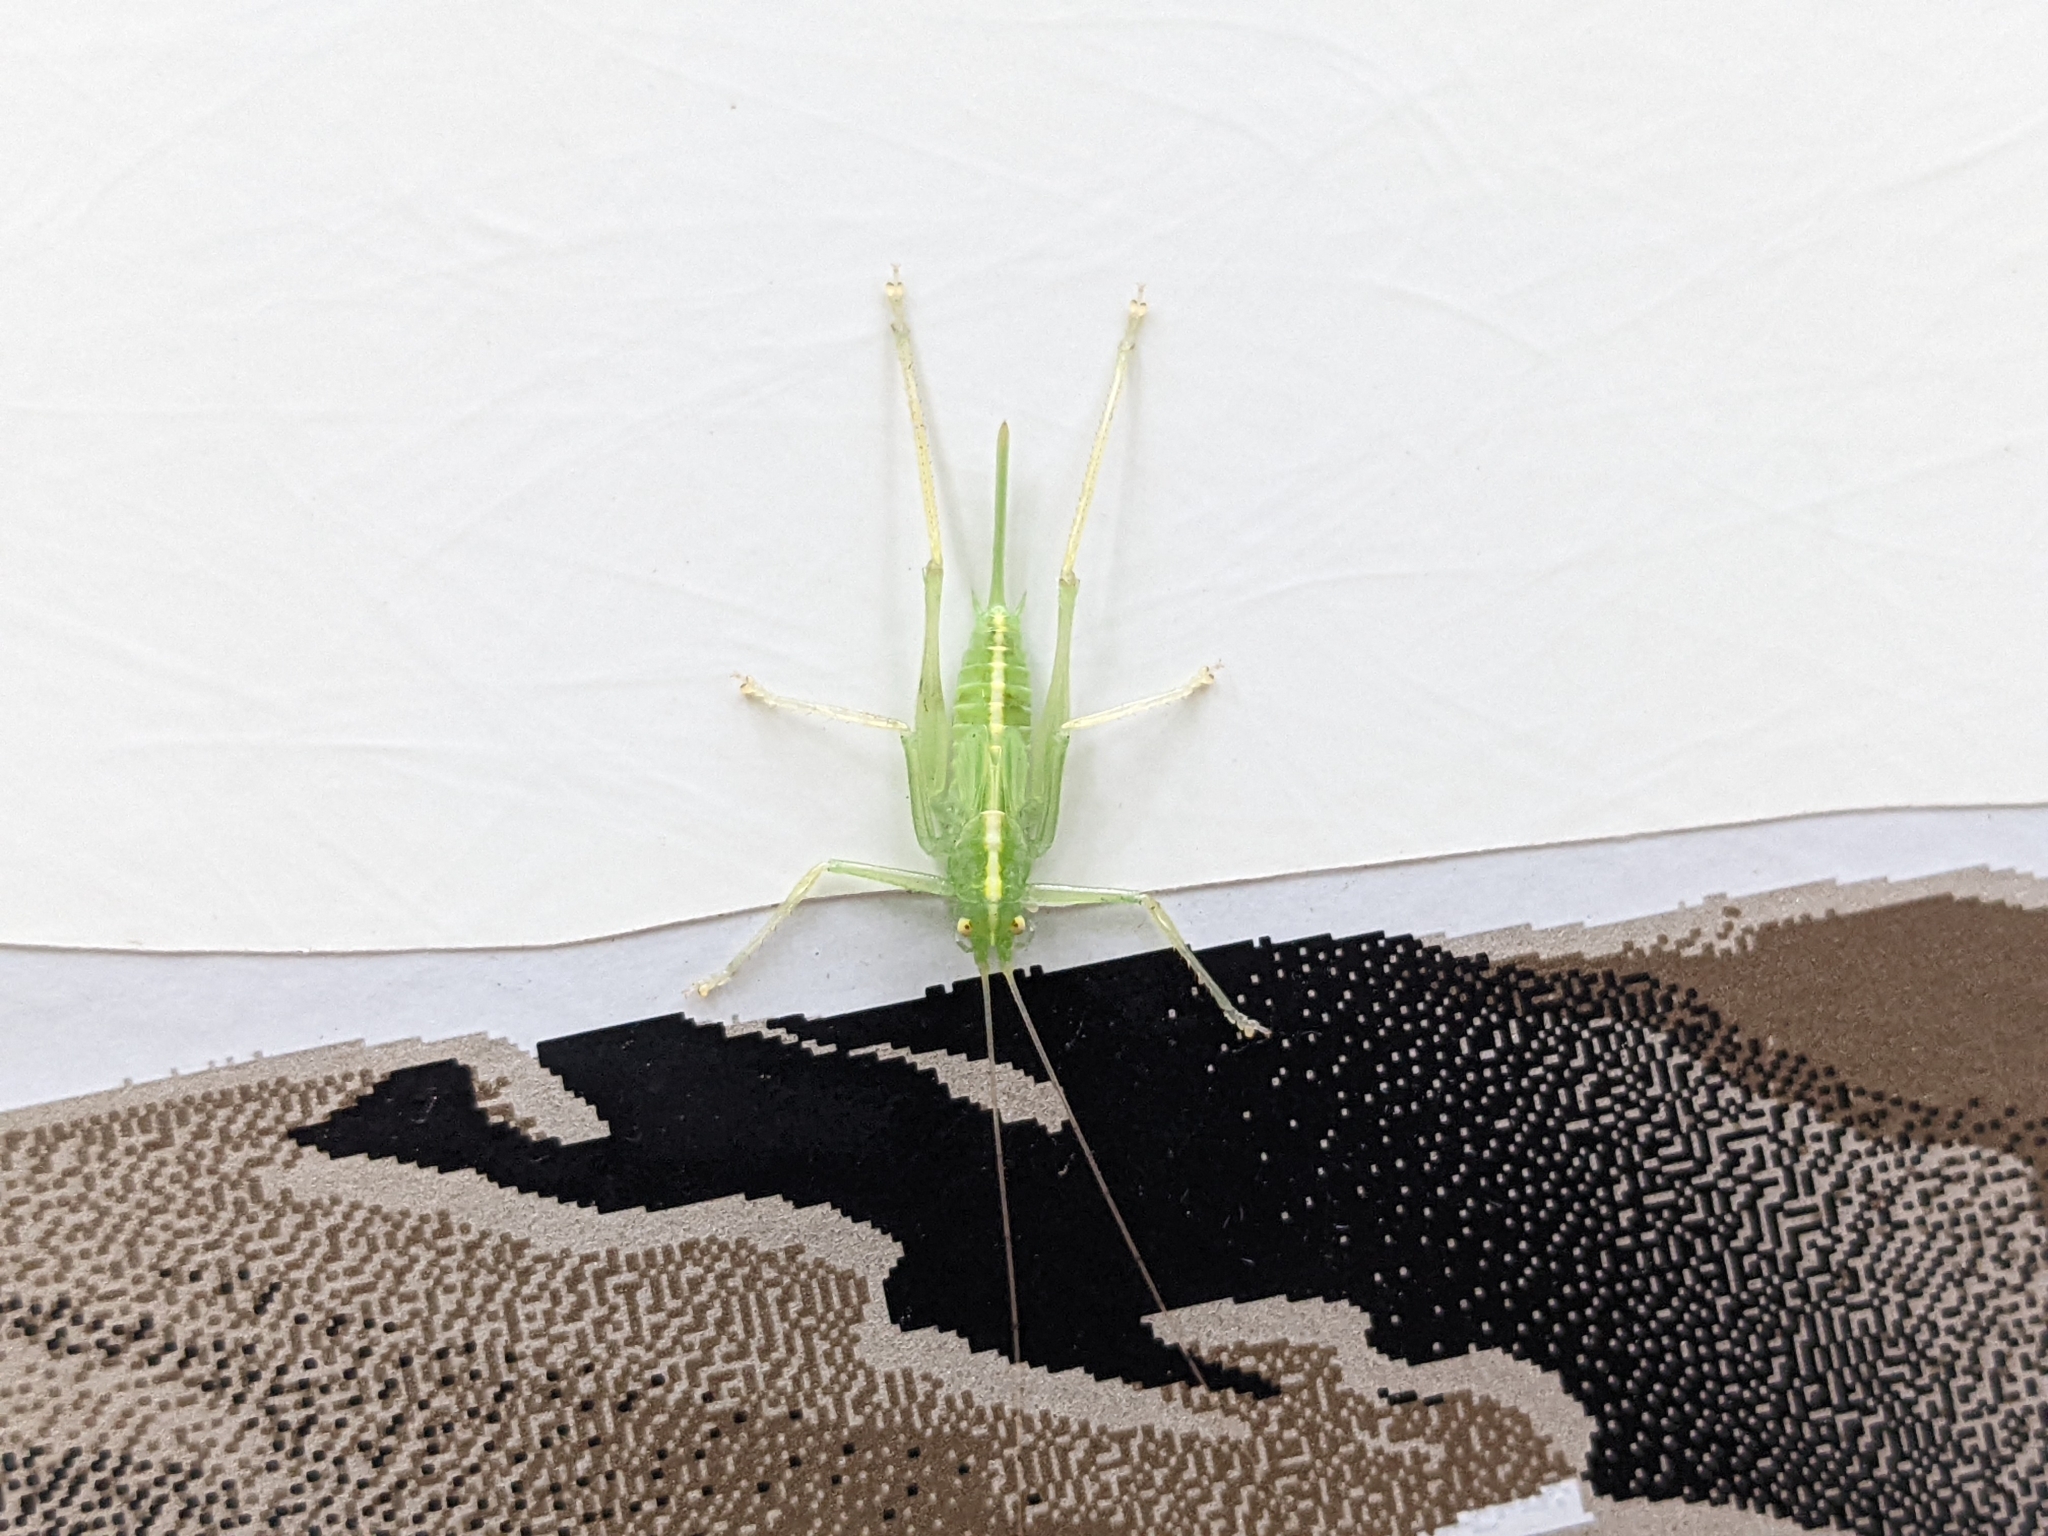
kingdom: Animalia
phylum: Arthropoda
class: Insecta
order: Orthoptera
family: Tettigoniidae
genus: Meconema
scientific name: Meconema thalassinum
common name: Oak bush-cricket
